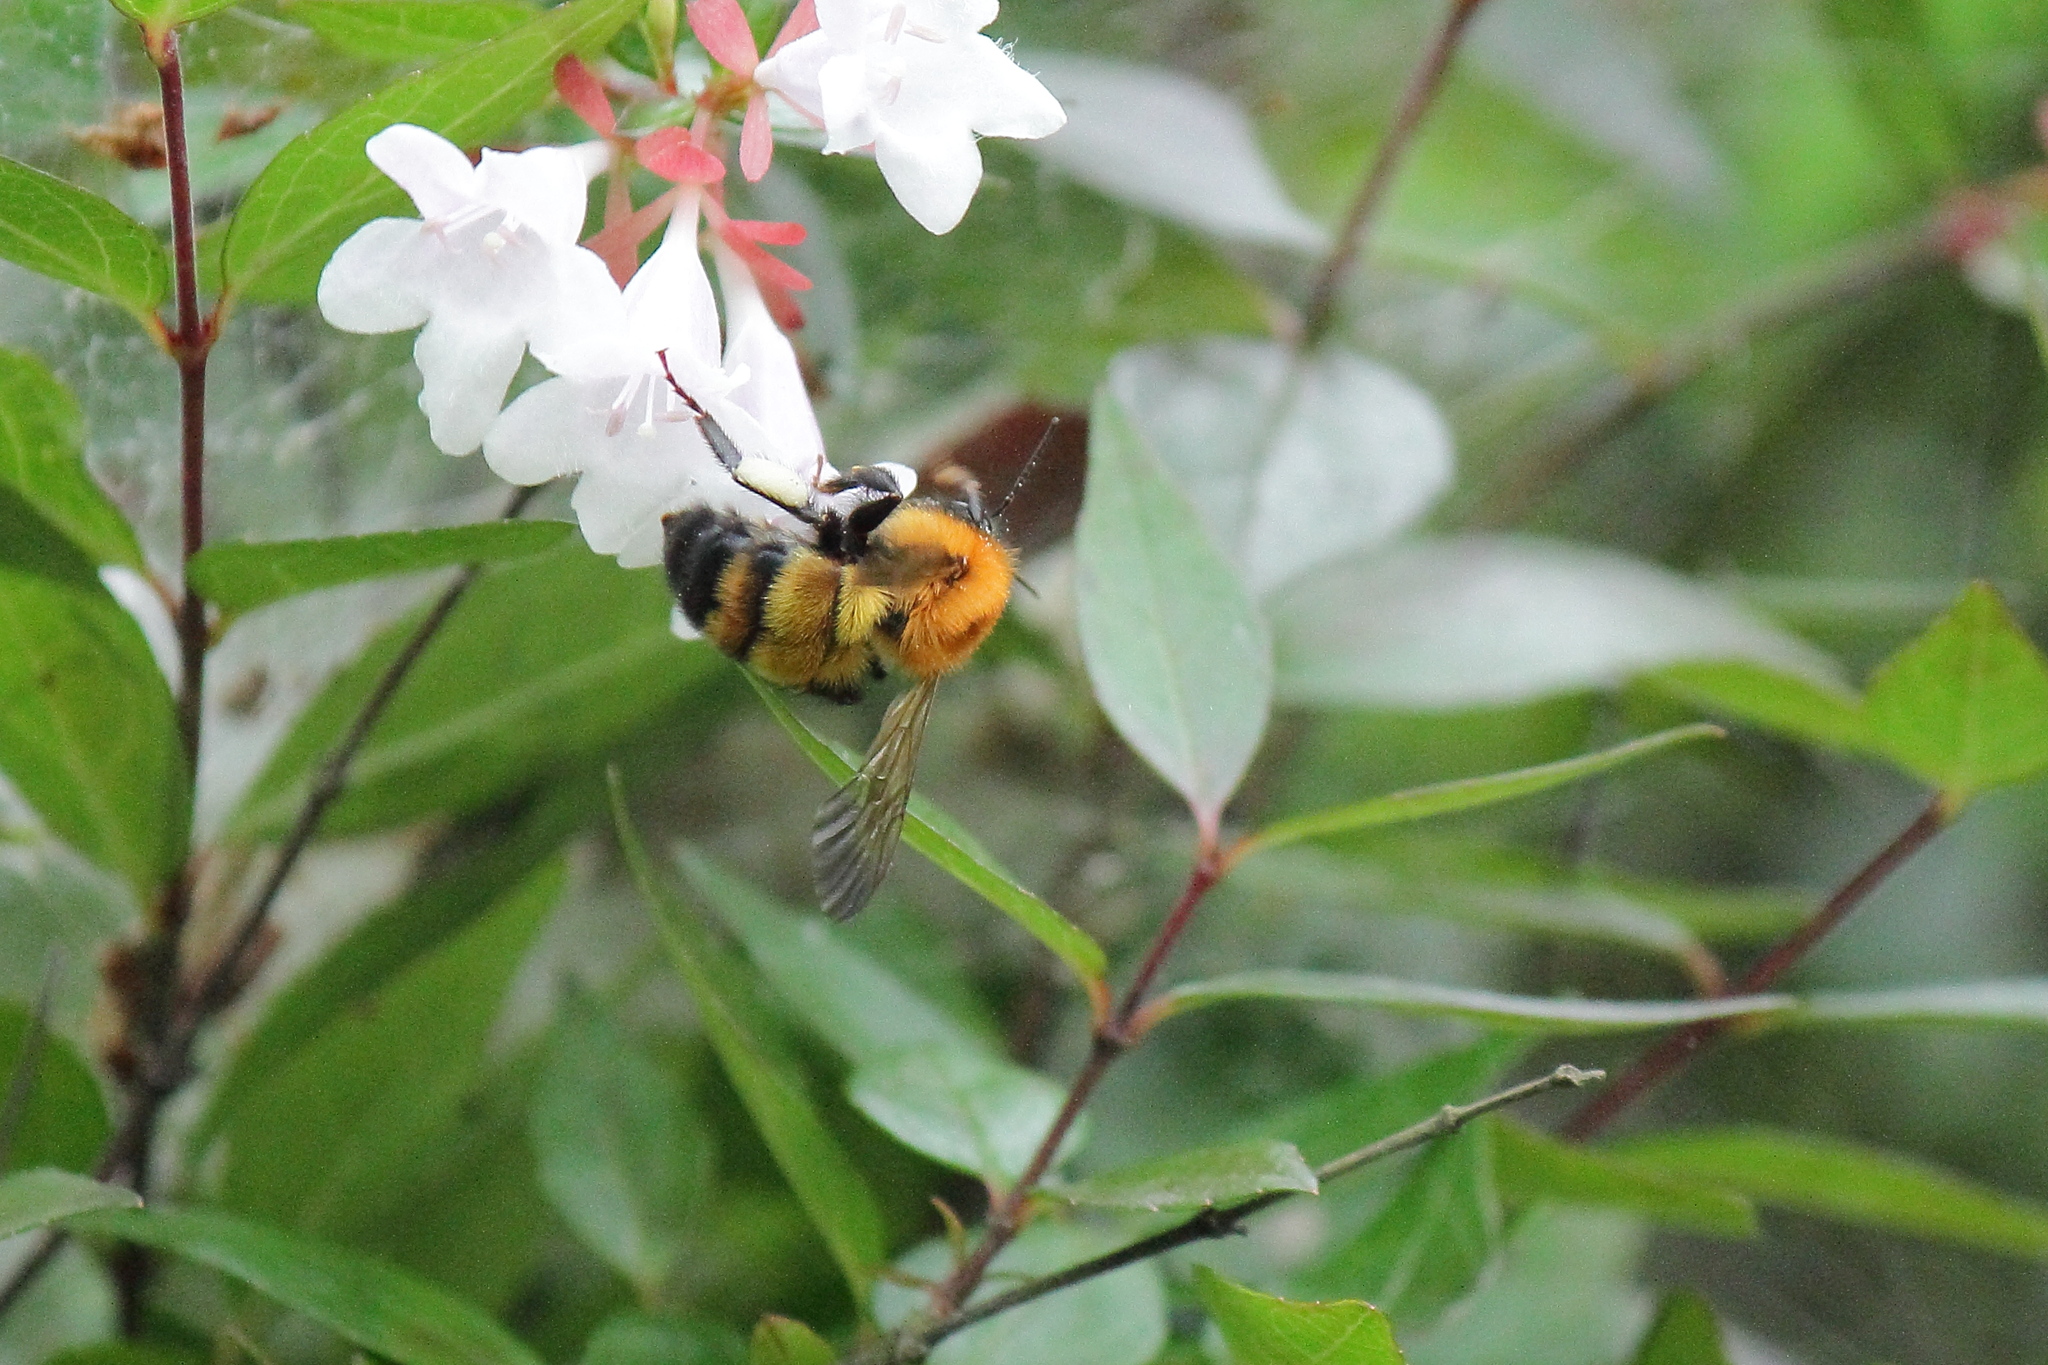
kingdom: Animalia
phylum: Arthropoda
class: Insecta
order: Hymenoptera
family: Apidae
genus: Bombus
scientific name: Bombus diversus
